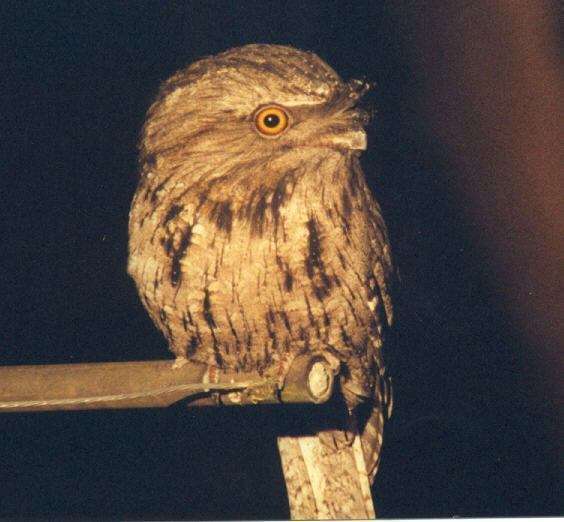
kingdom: Animalia
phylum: Chordata
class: Aves
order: Caprimulgiformes
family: Podargidae
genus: Podargus
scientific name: Podargus strigoides
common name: Tawny frogmouth
